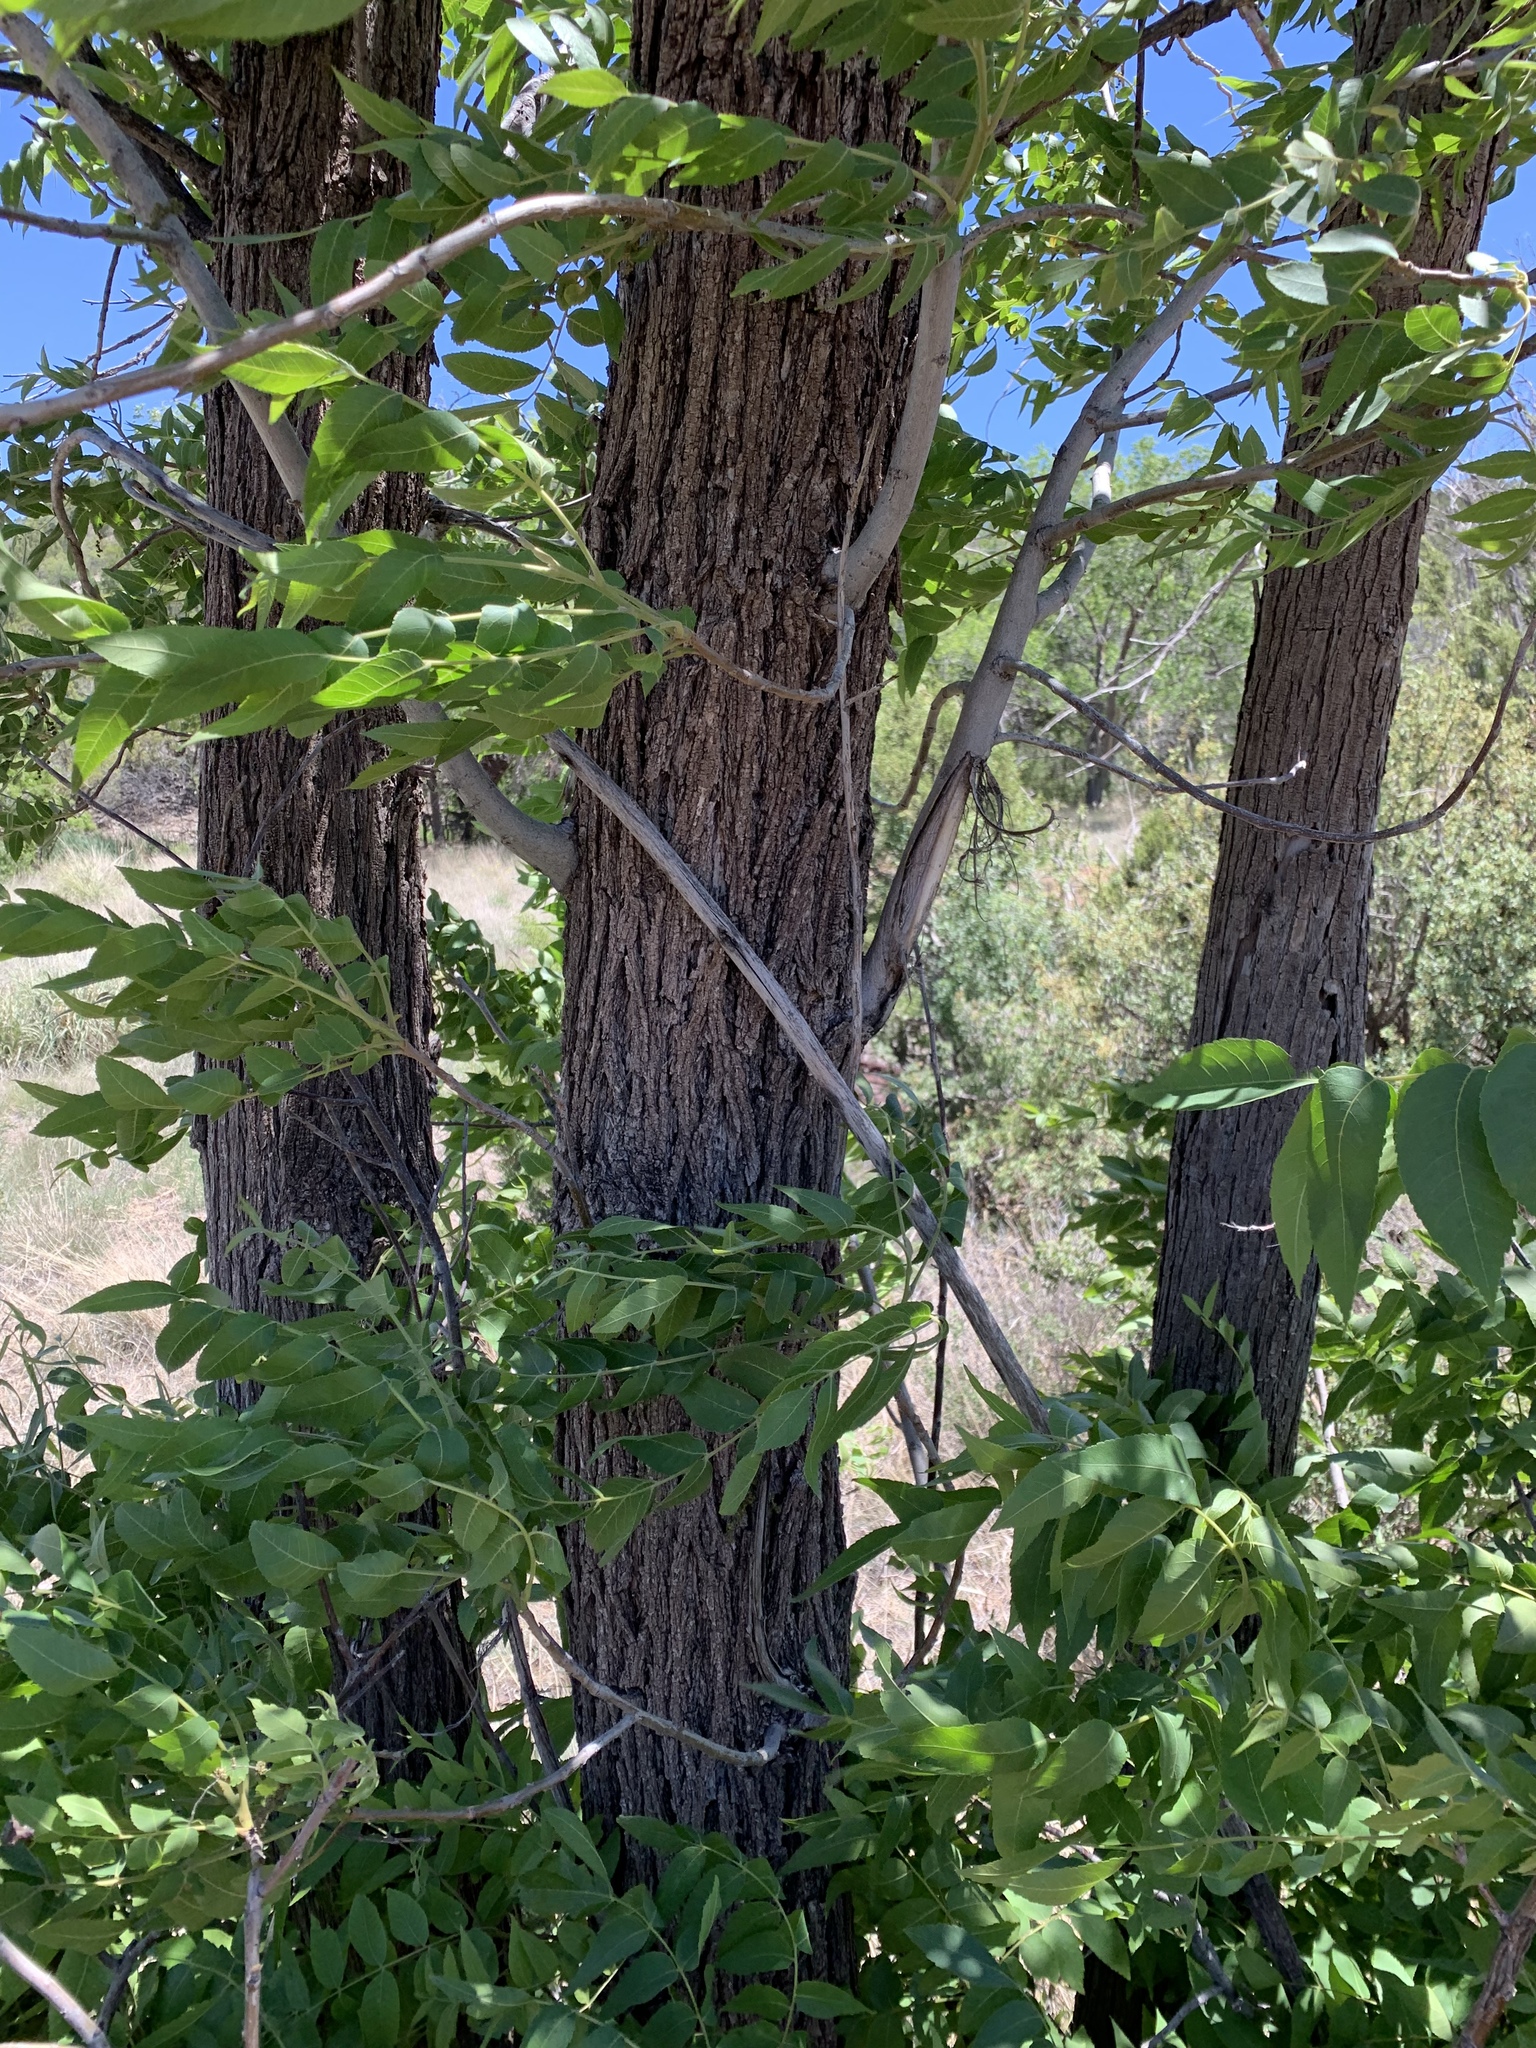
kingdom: Plantae
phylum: Tracheophyta
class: Magnoliopsida
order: Fagales
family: Juglandaceae
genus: Juglans
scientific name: Juglans major
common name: Arizona walnut
